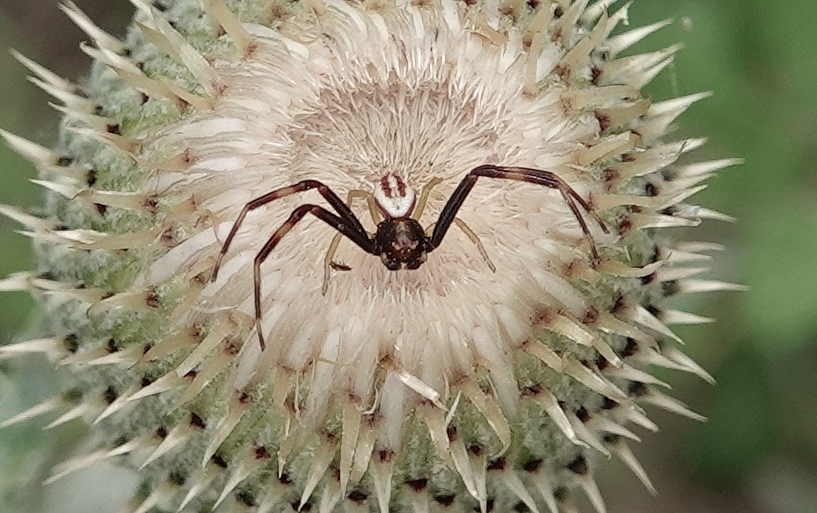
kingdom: Animalia
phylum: Arthropoda
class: Arachnida
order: Araneae
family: Thomisidae
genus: Misumena
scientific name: Misumena vatia
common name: Goldenrod crab spider
